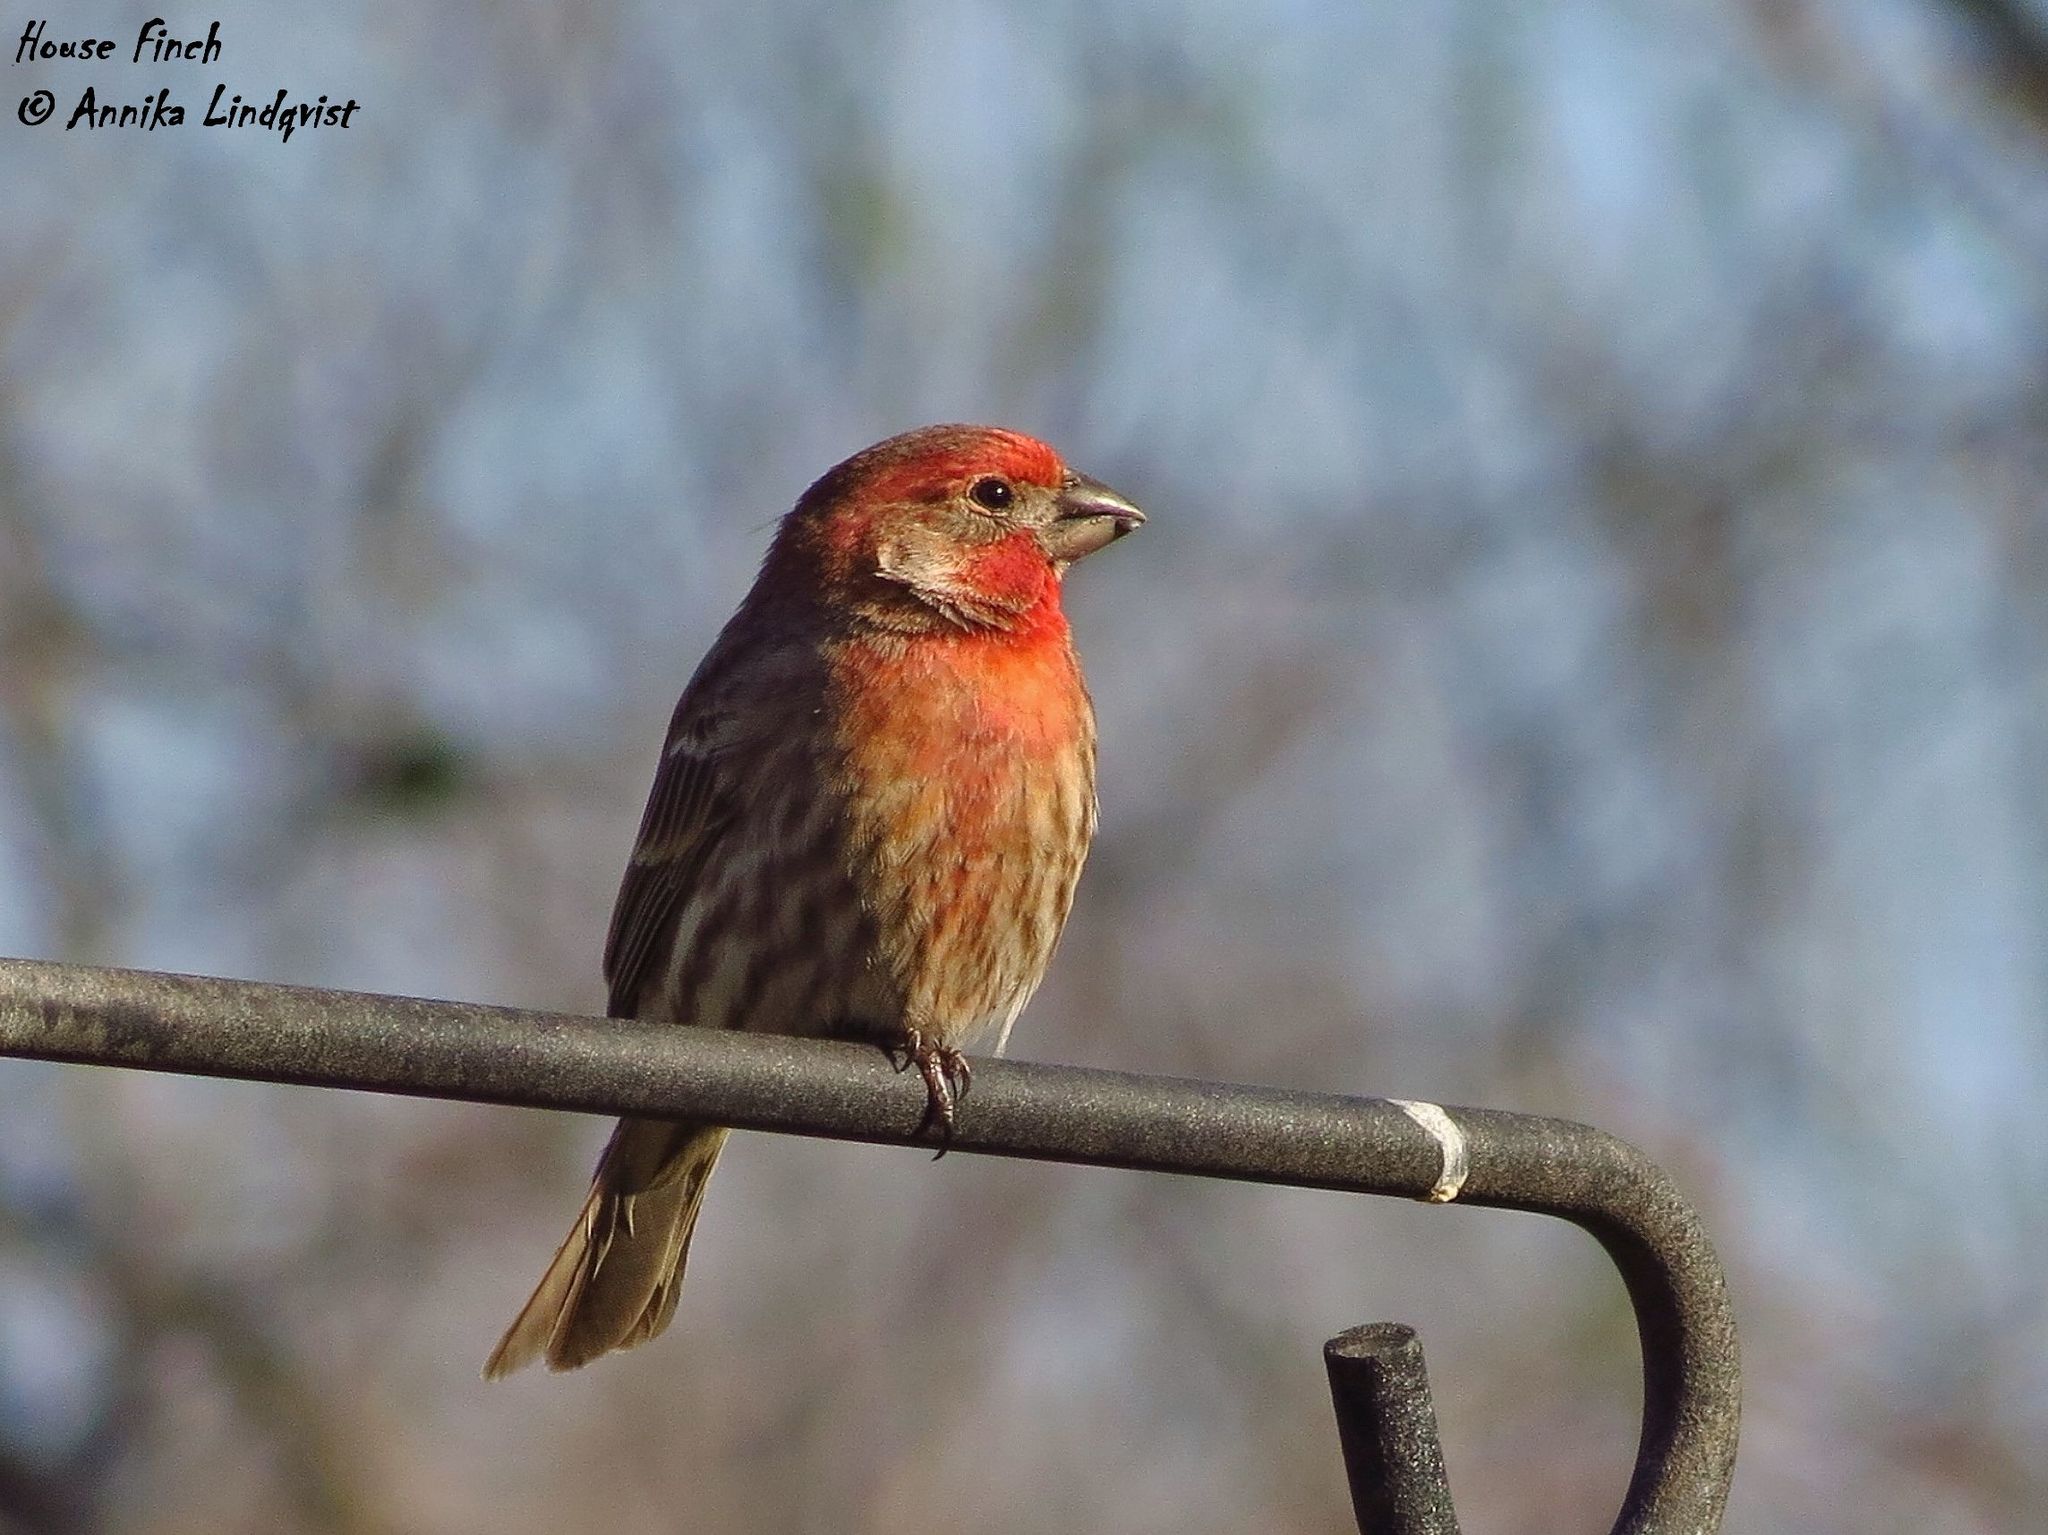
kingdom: Animalia
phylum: Chordata
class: Aves
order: Passeriformes
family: Fringillidae
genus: Haemorhous
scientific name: Haemorhous mexicanus
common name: House finch
